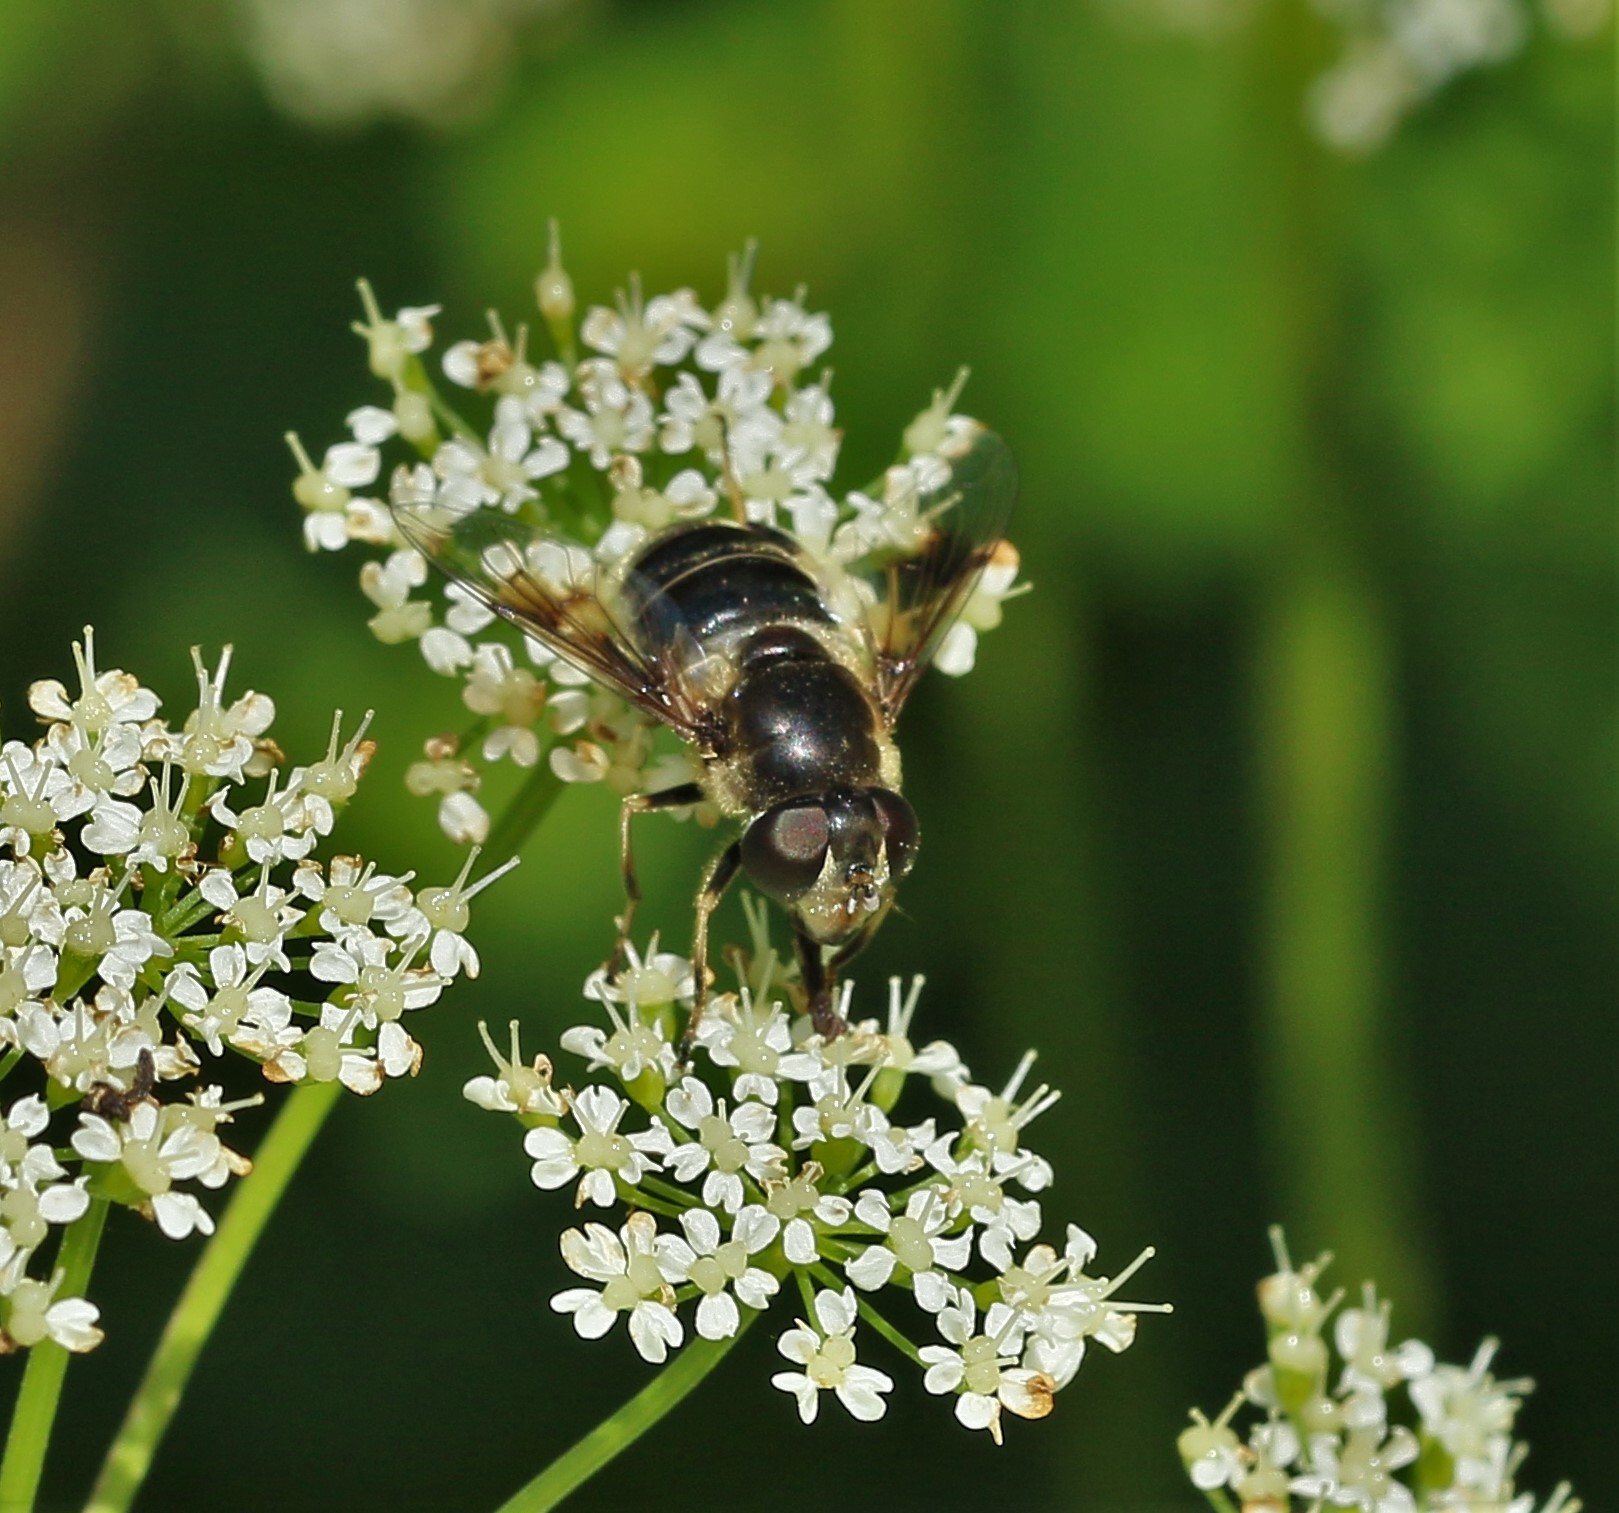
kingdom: Animalia
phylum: Arthropoda
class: Insecta
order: Diptera
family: Syrphidae
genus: Eristalis
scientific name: Eristalis obscura
